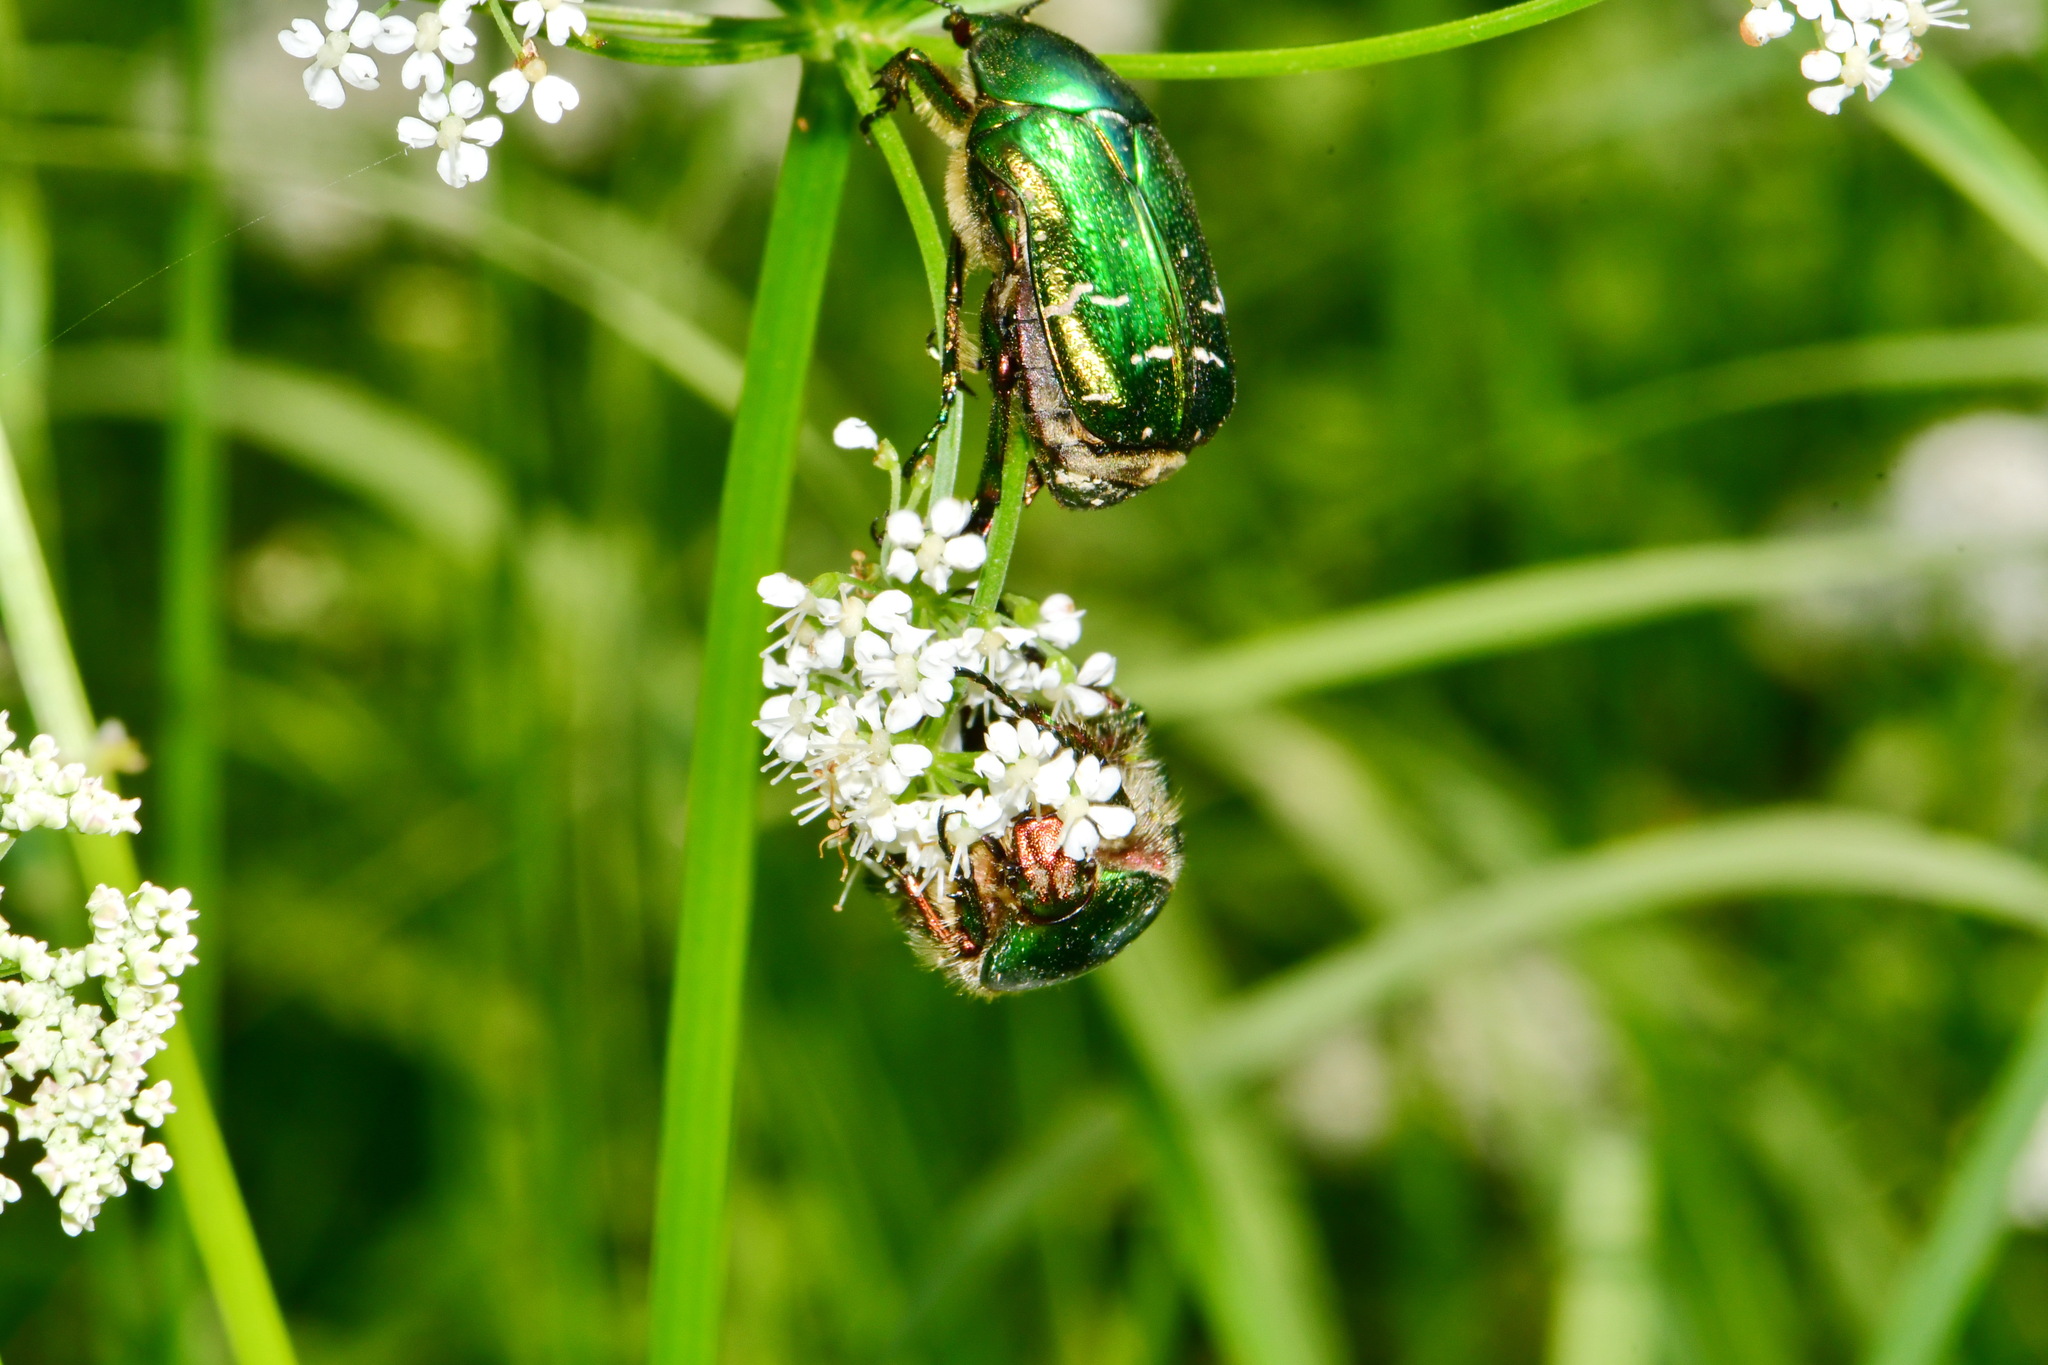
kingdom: Animalia
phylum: Arthropoda
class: Insecta
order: Coleoptera
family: Scarabaeidae
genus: Cetonia
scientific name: Cetonia aurata
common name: Rose chafer
